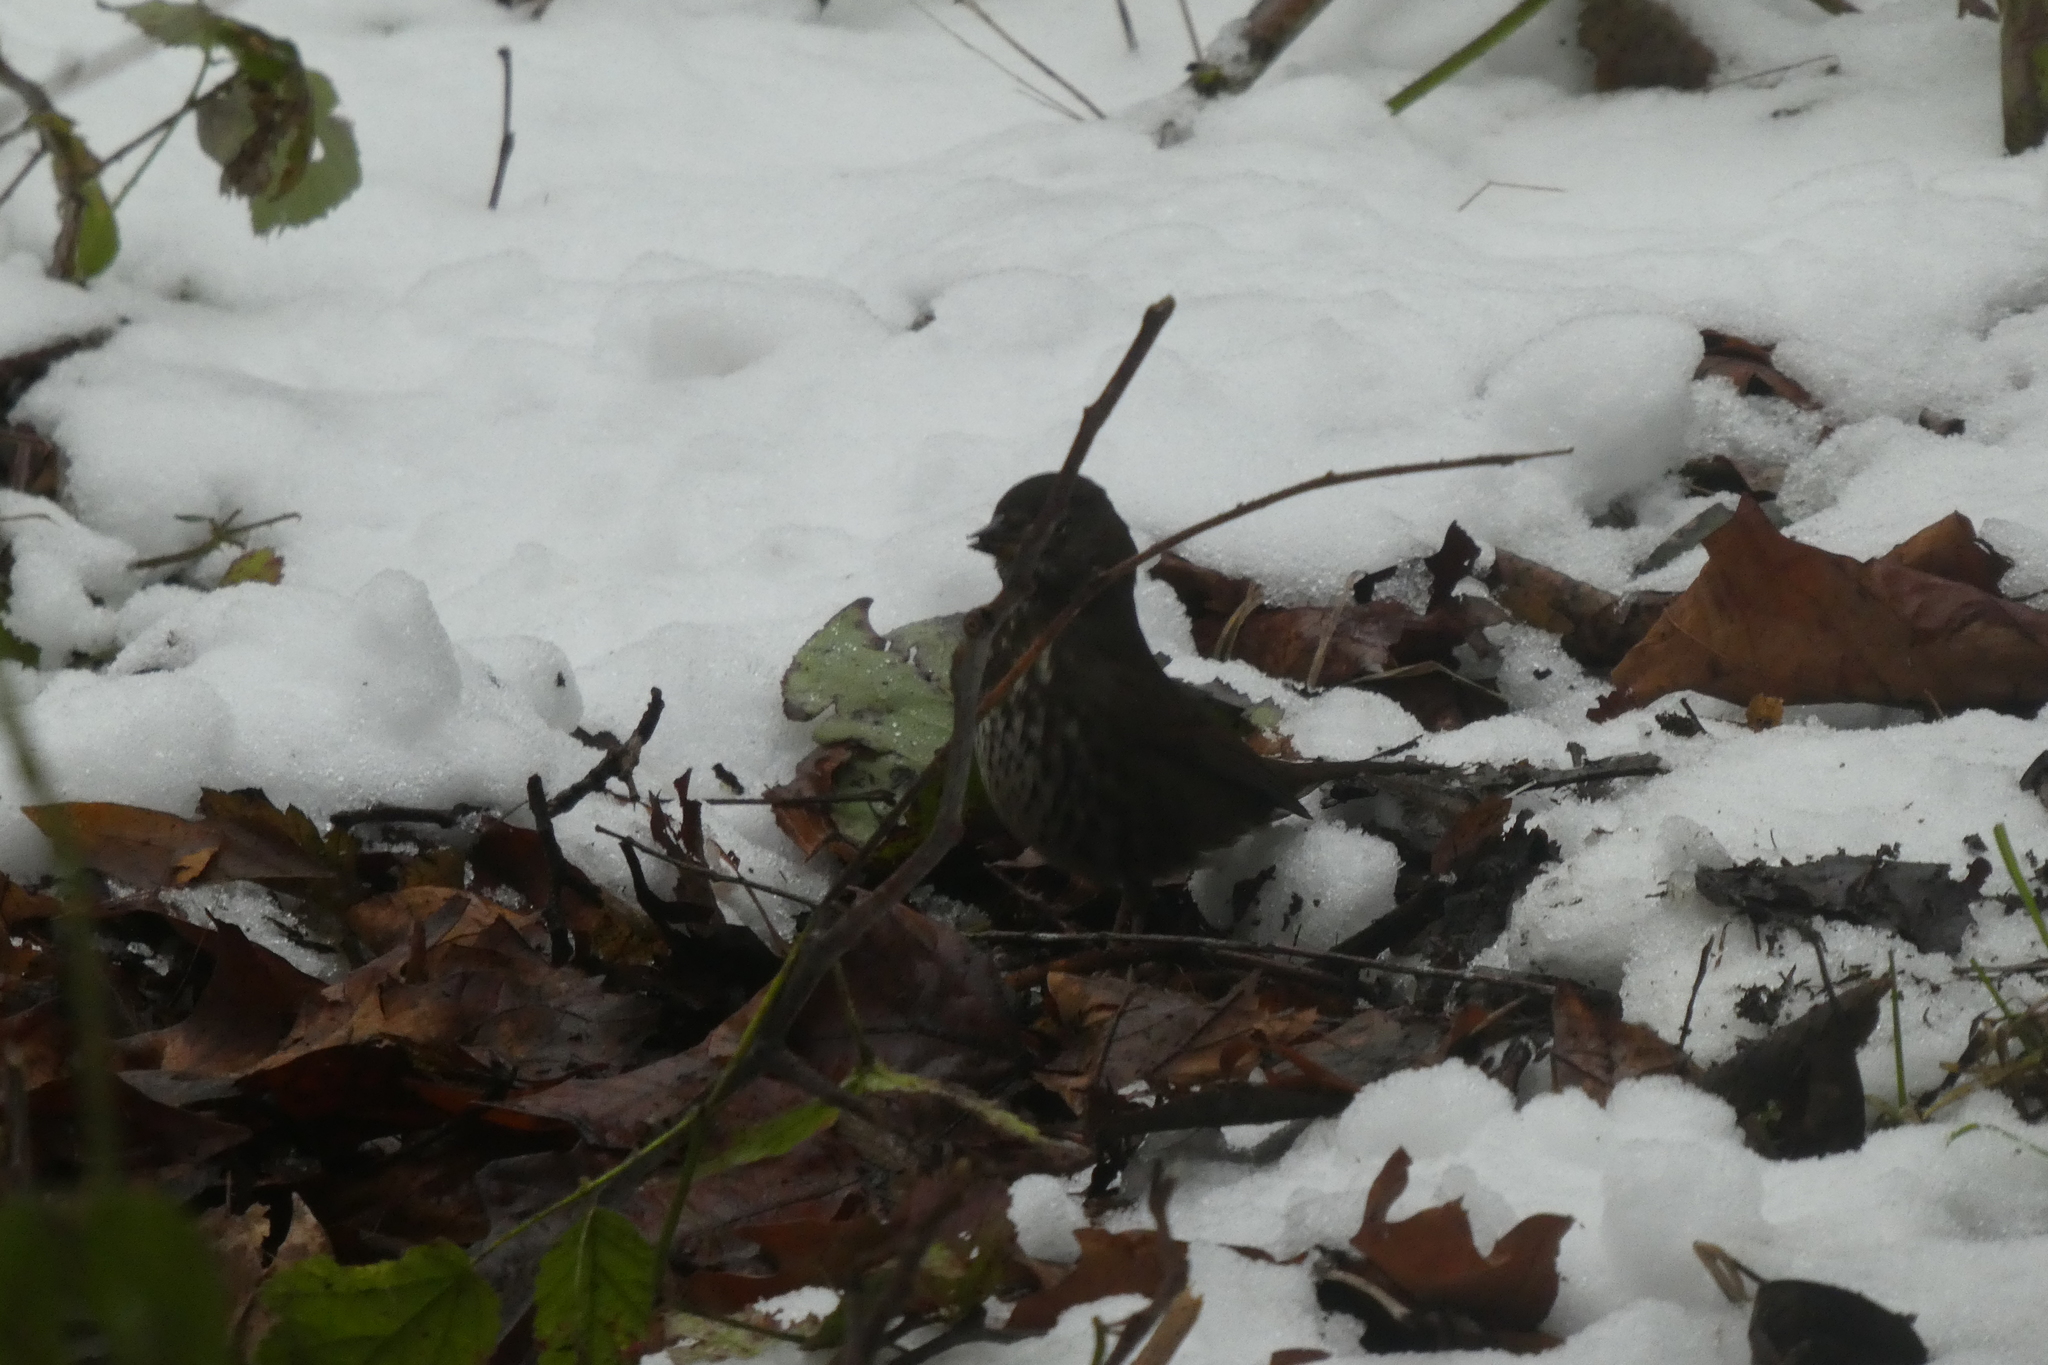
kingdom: Animalia
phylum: Chordata
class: Aves
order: Passeriformes
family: Passerellidae
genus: Passerella
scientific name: Passerella iliaca
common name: Fox sparrow
